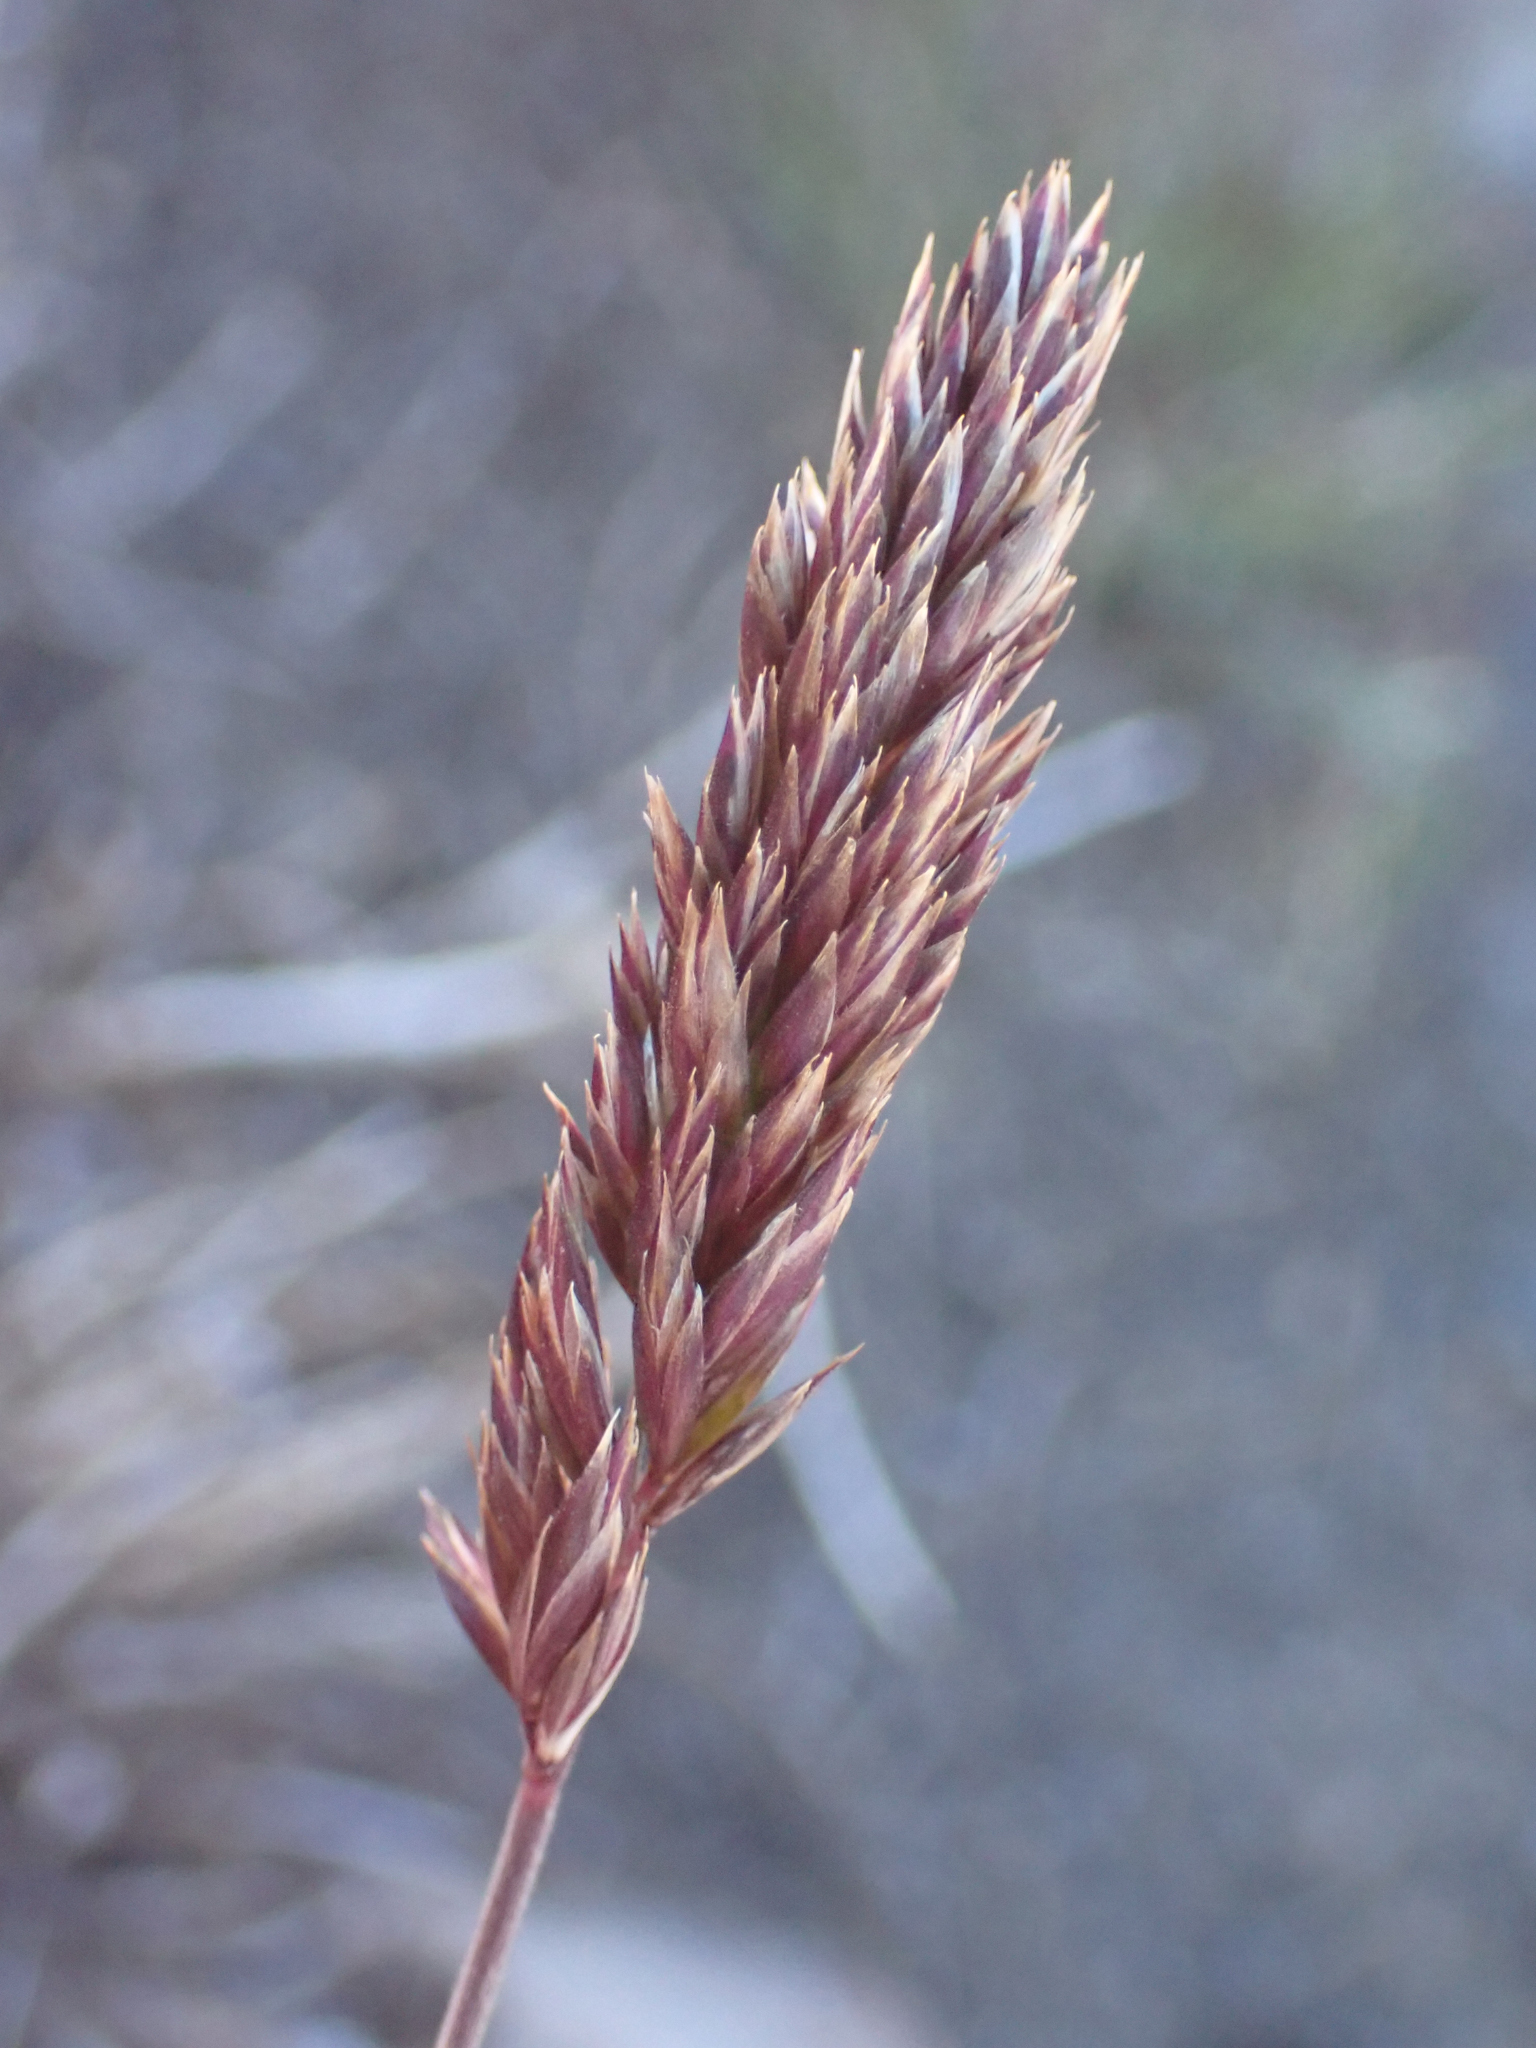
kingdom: Plantae
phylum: Tracheophyta
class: Liliopsida
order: Poales
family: Poaceae
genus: Koeleria
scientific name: Koeleria macrantha
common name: Crested hair-grass
